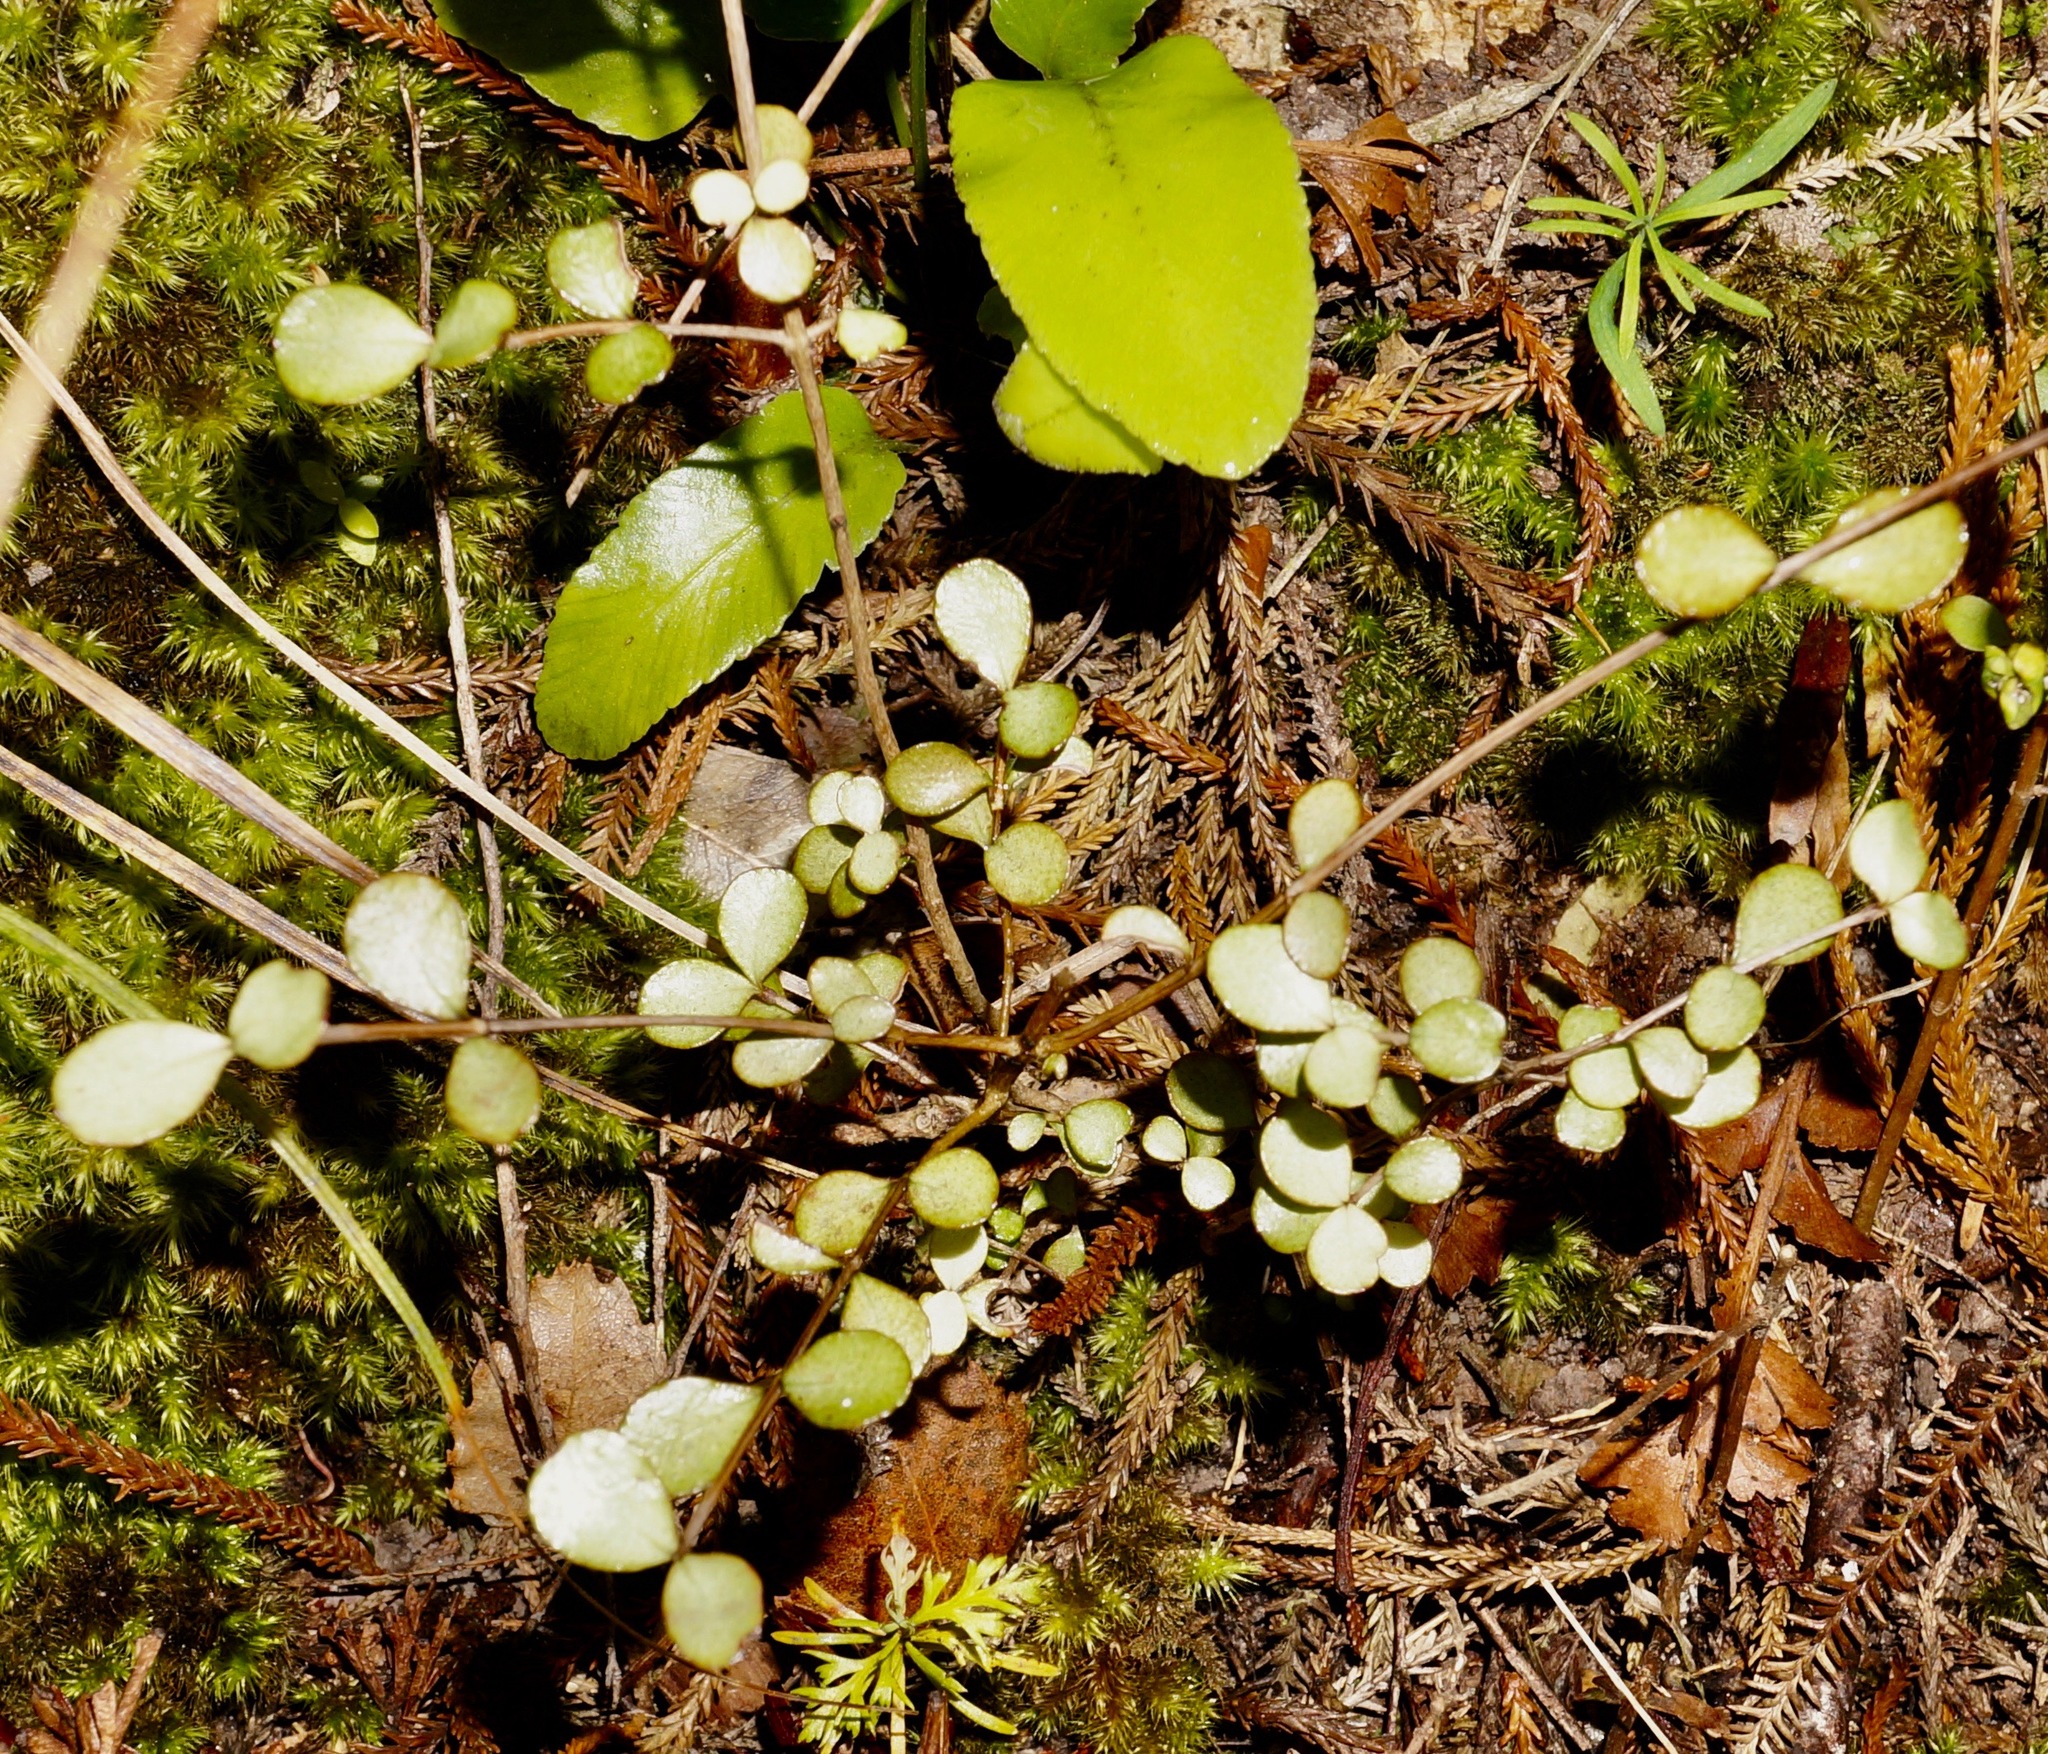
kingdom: Plantae
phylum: Tracheophyta
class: Magnoliopsida
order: Myrtales
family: Myrtaceae
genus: Neomyrtus
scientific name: Neomyrtus pedunculata
